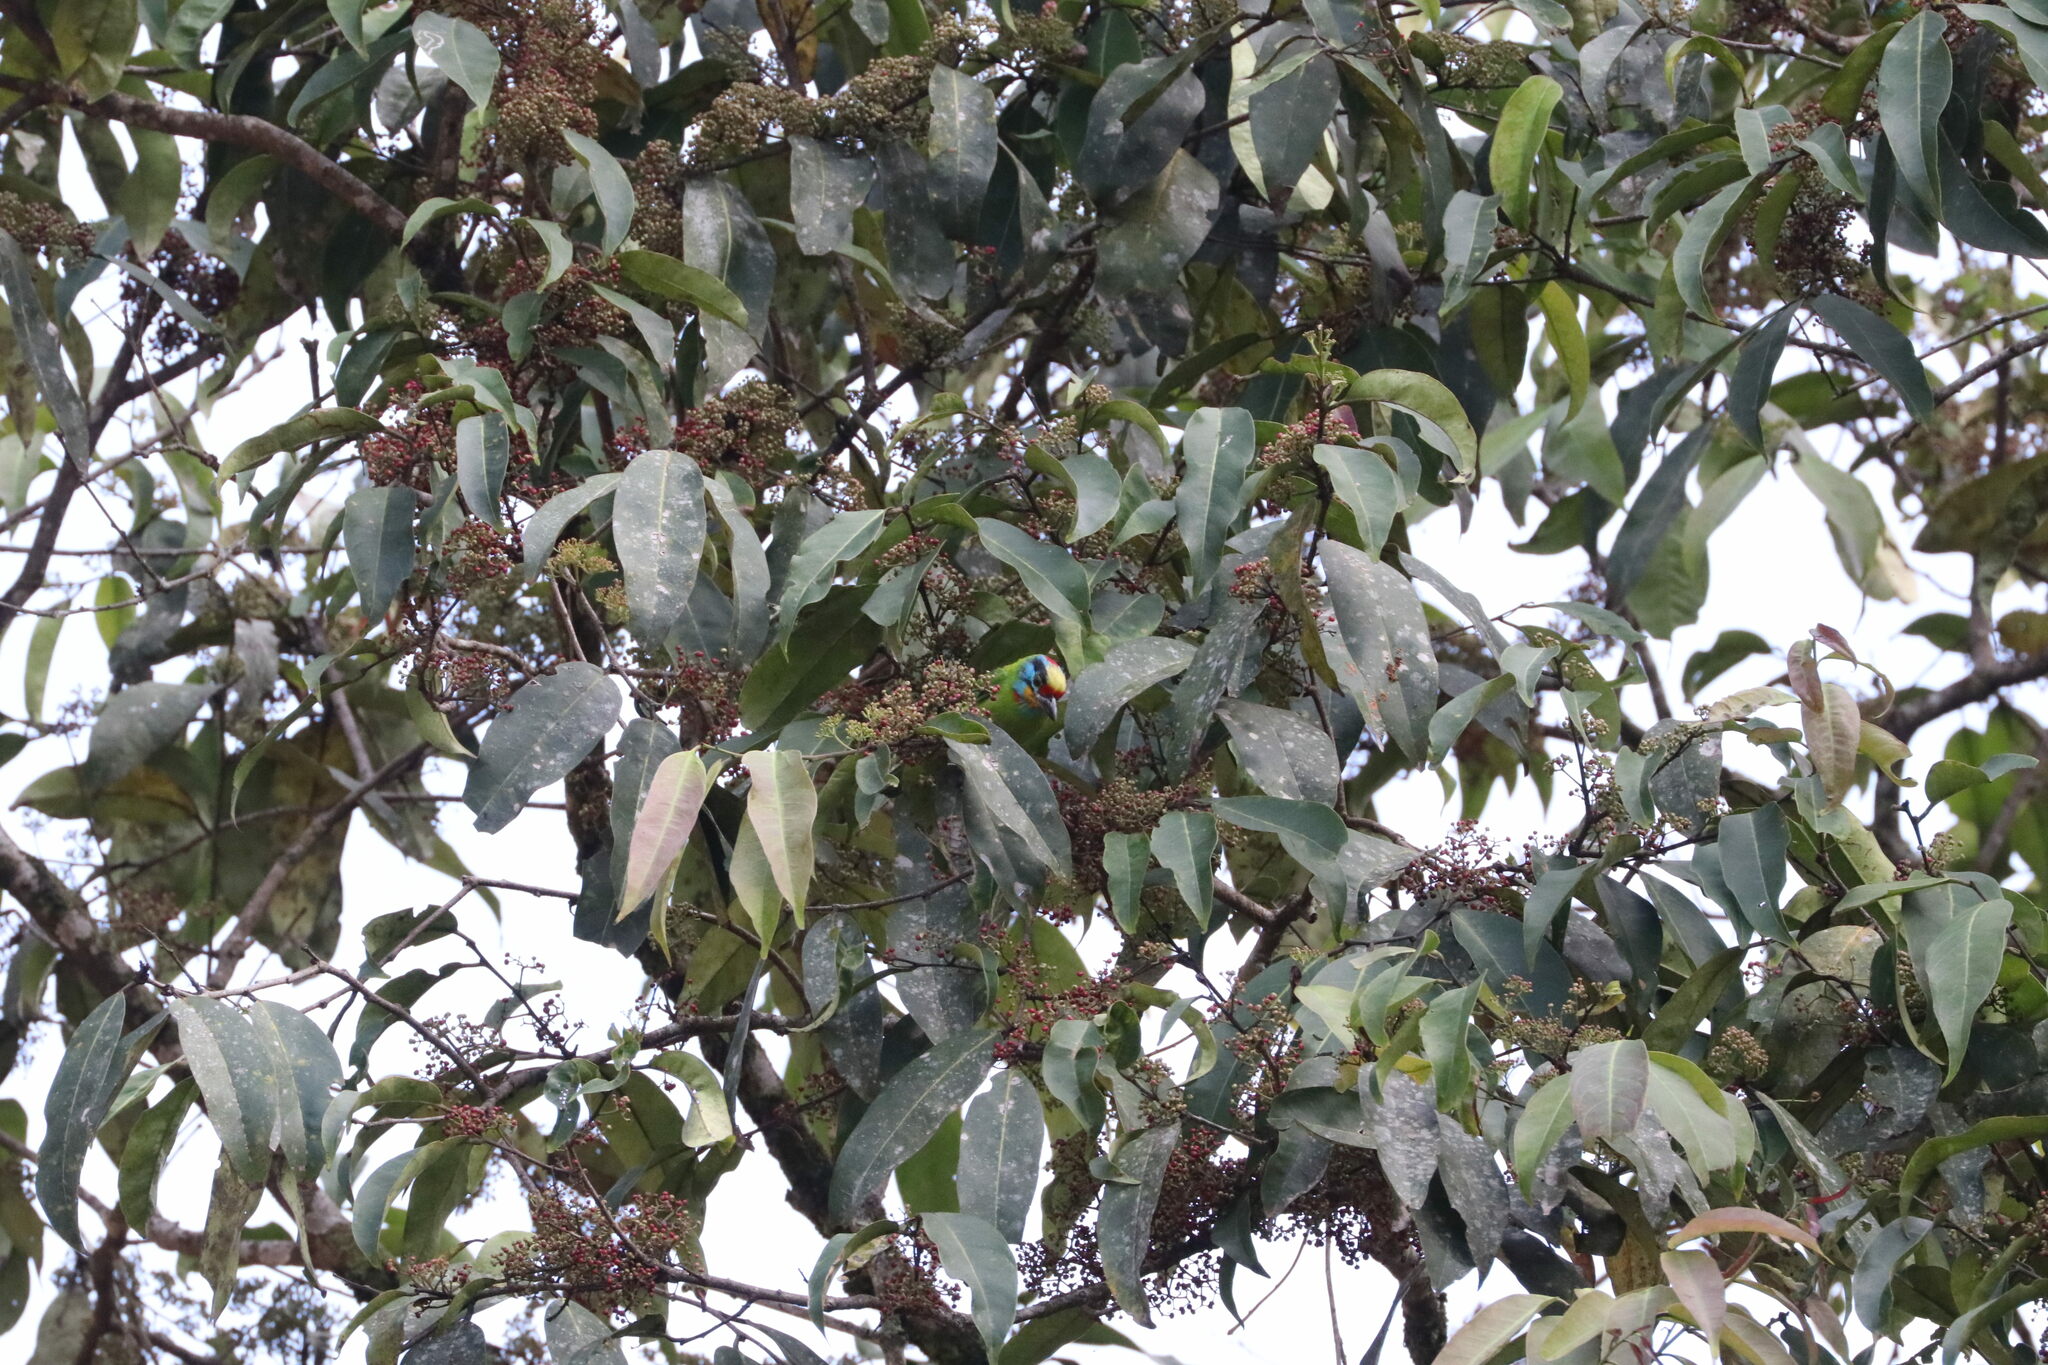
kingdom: Animalia
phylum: Chordata
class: Aves
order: Piciformes
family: Megalaimidae
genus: Psilopogon
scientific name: Psilopogon oorti
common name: Black-browed barbet
